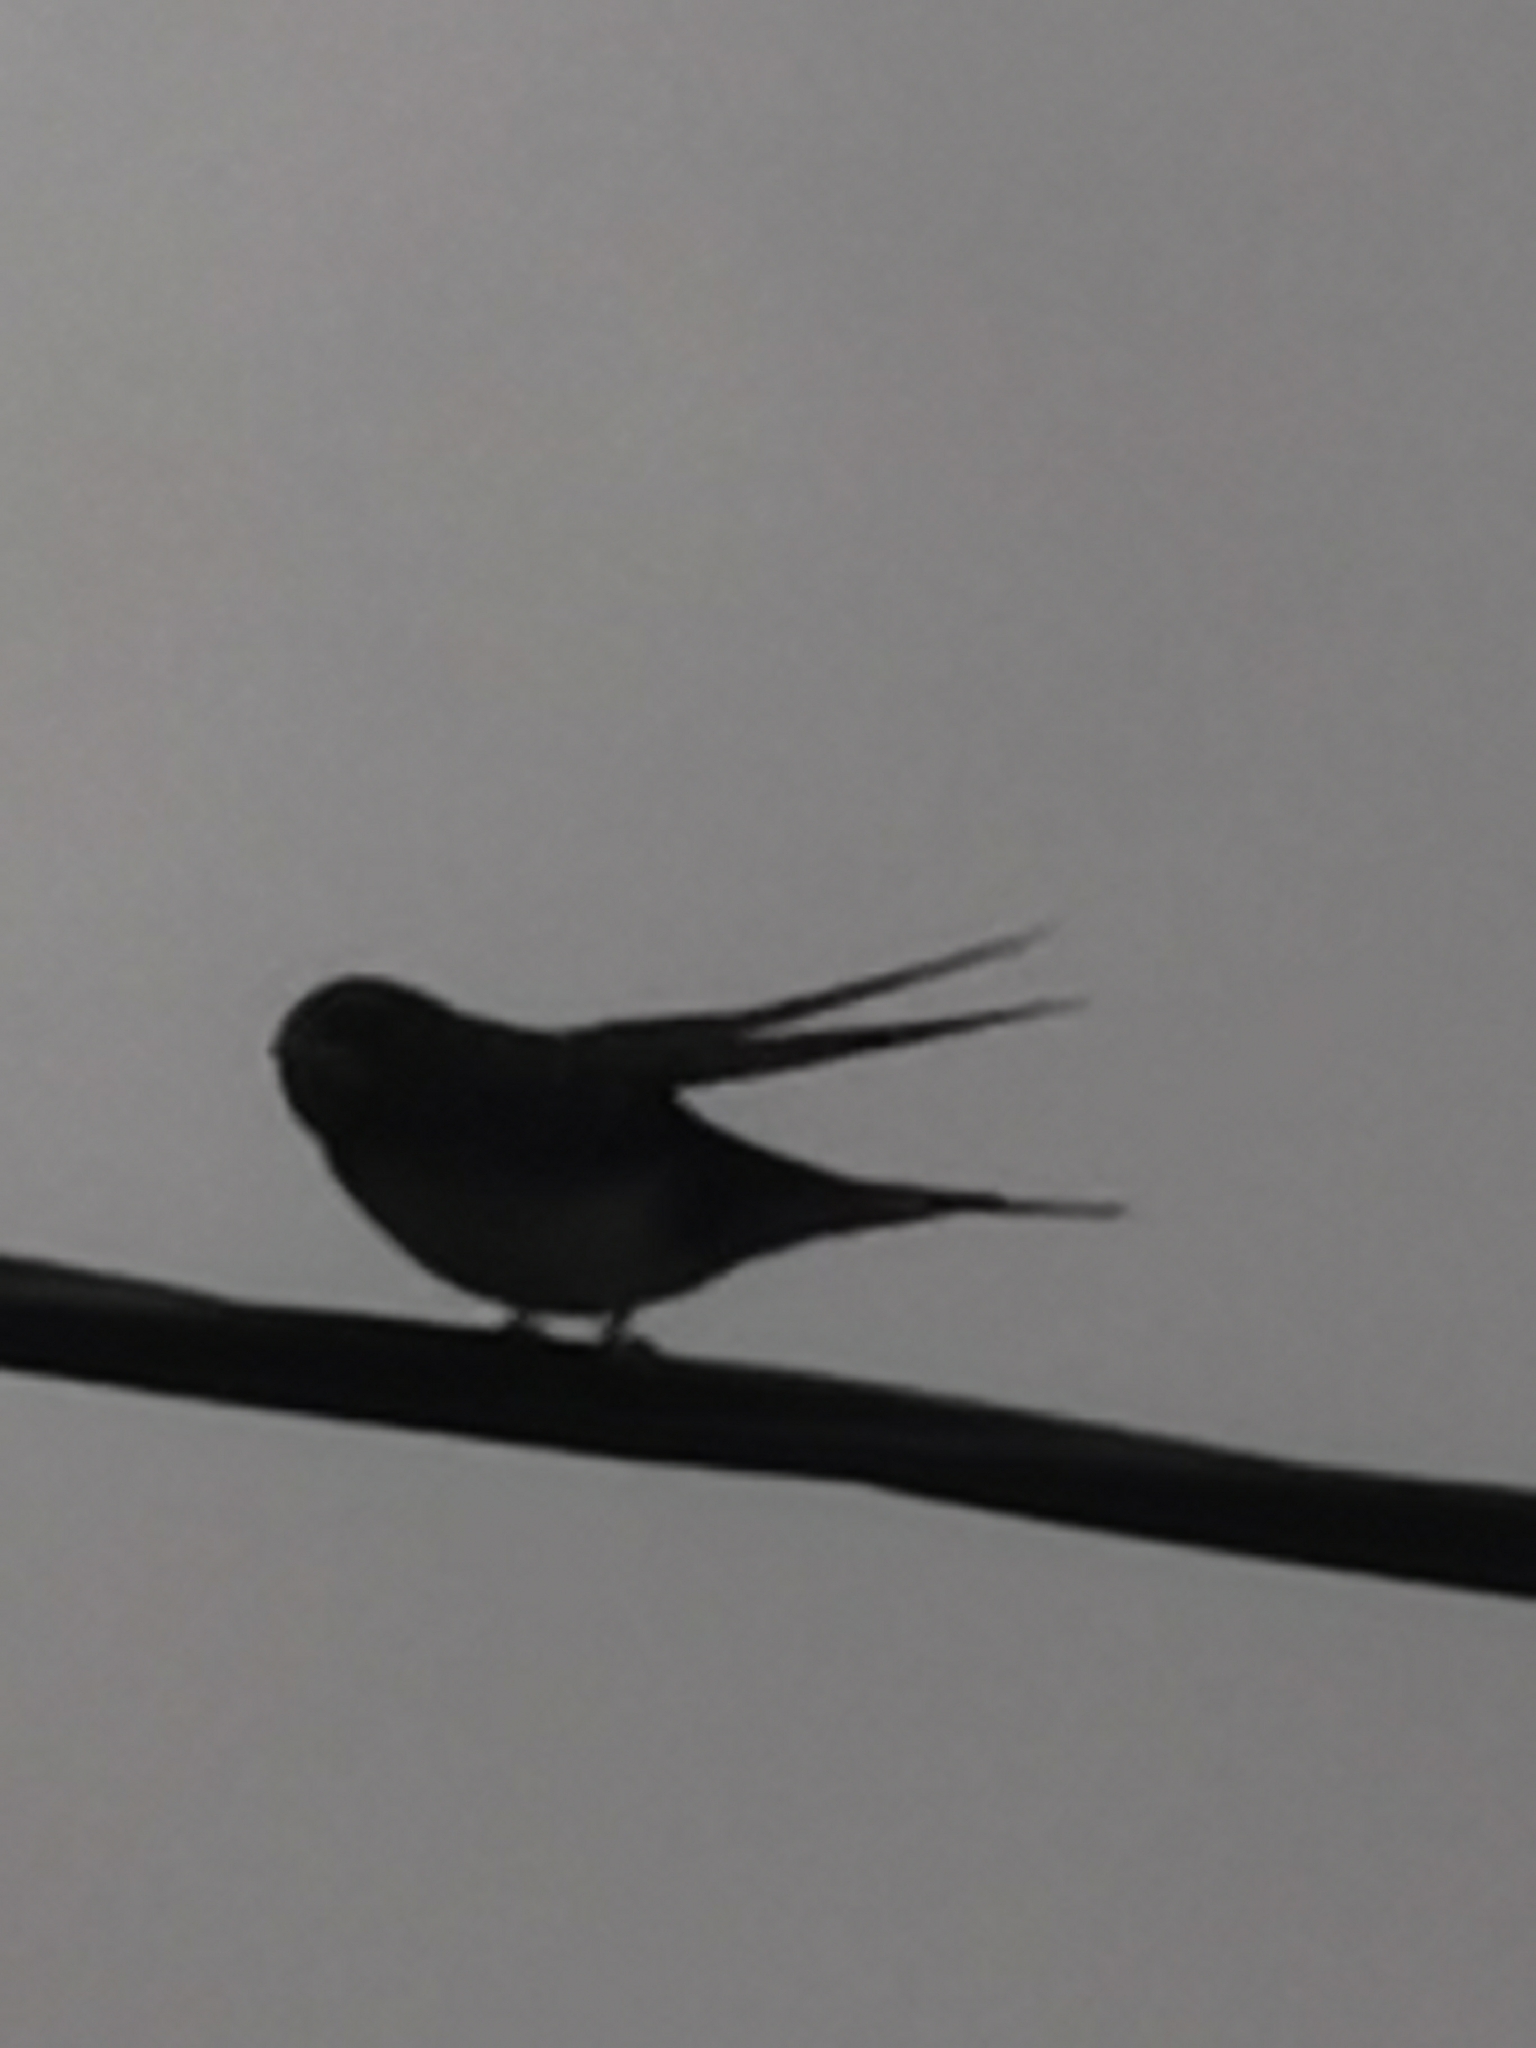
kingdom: Animalia
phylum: Chordata
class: Aves
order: Passeriformes
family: Hirundinidae
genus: Hirundo
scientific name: Hirundo rustica
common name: Barn swallow
